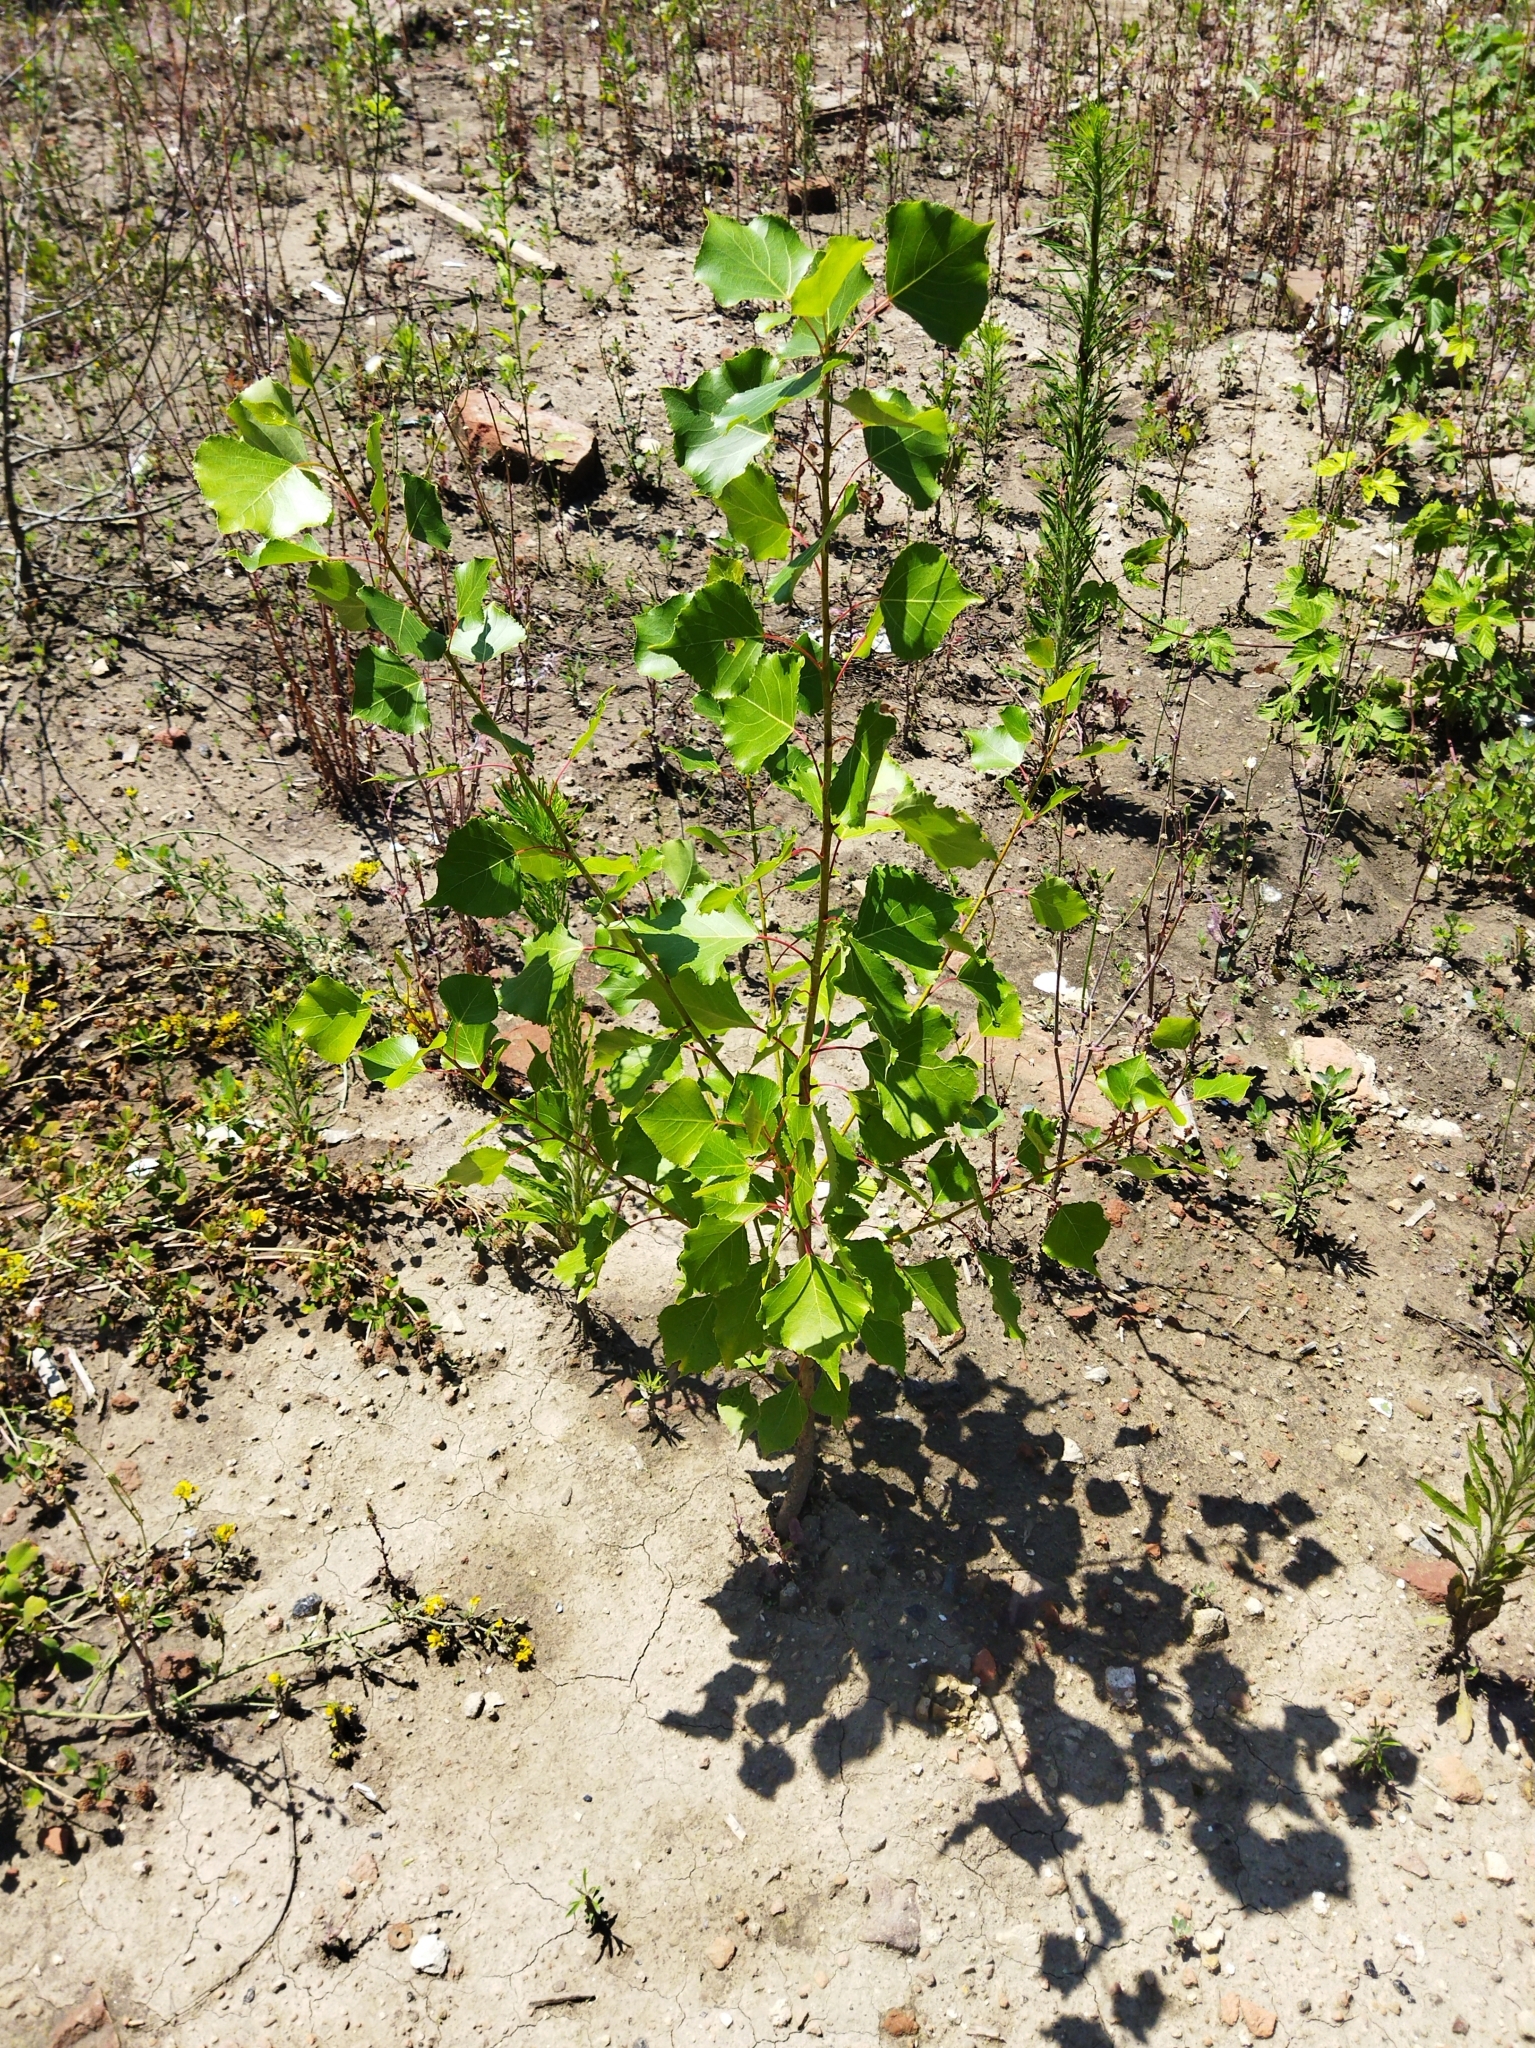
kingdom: Plantae
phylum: Tracheophyta
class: Magnoliopsida
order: Malpighiales
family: Salicaceae
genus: Populus
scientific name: Populus nigra
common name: Black poplar
